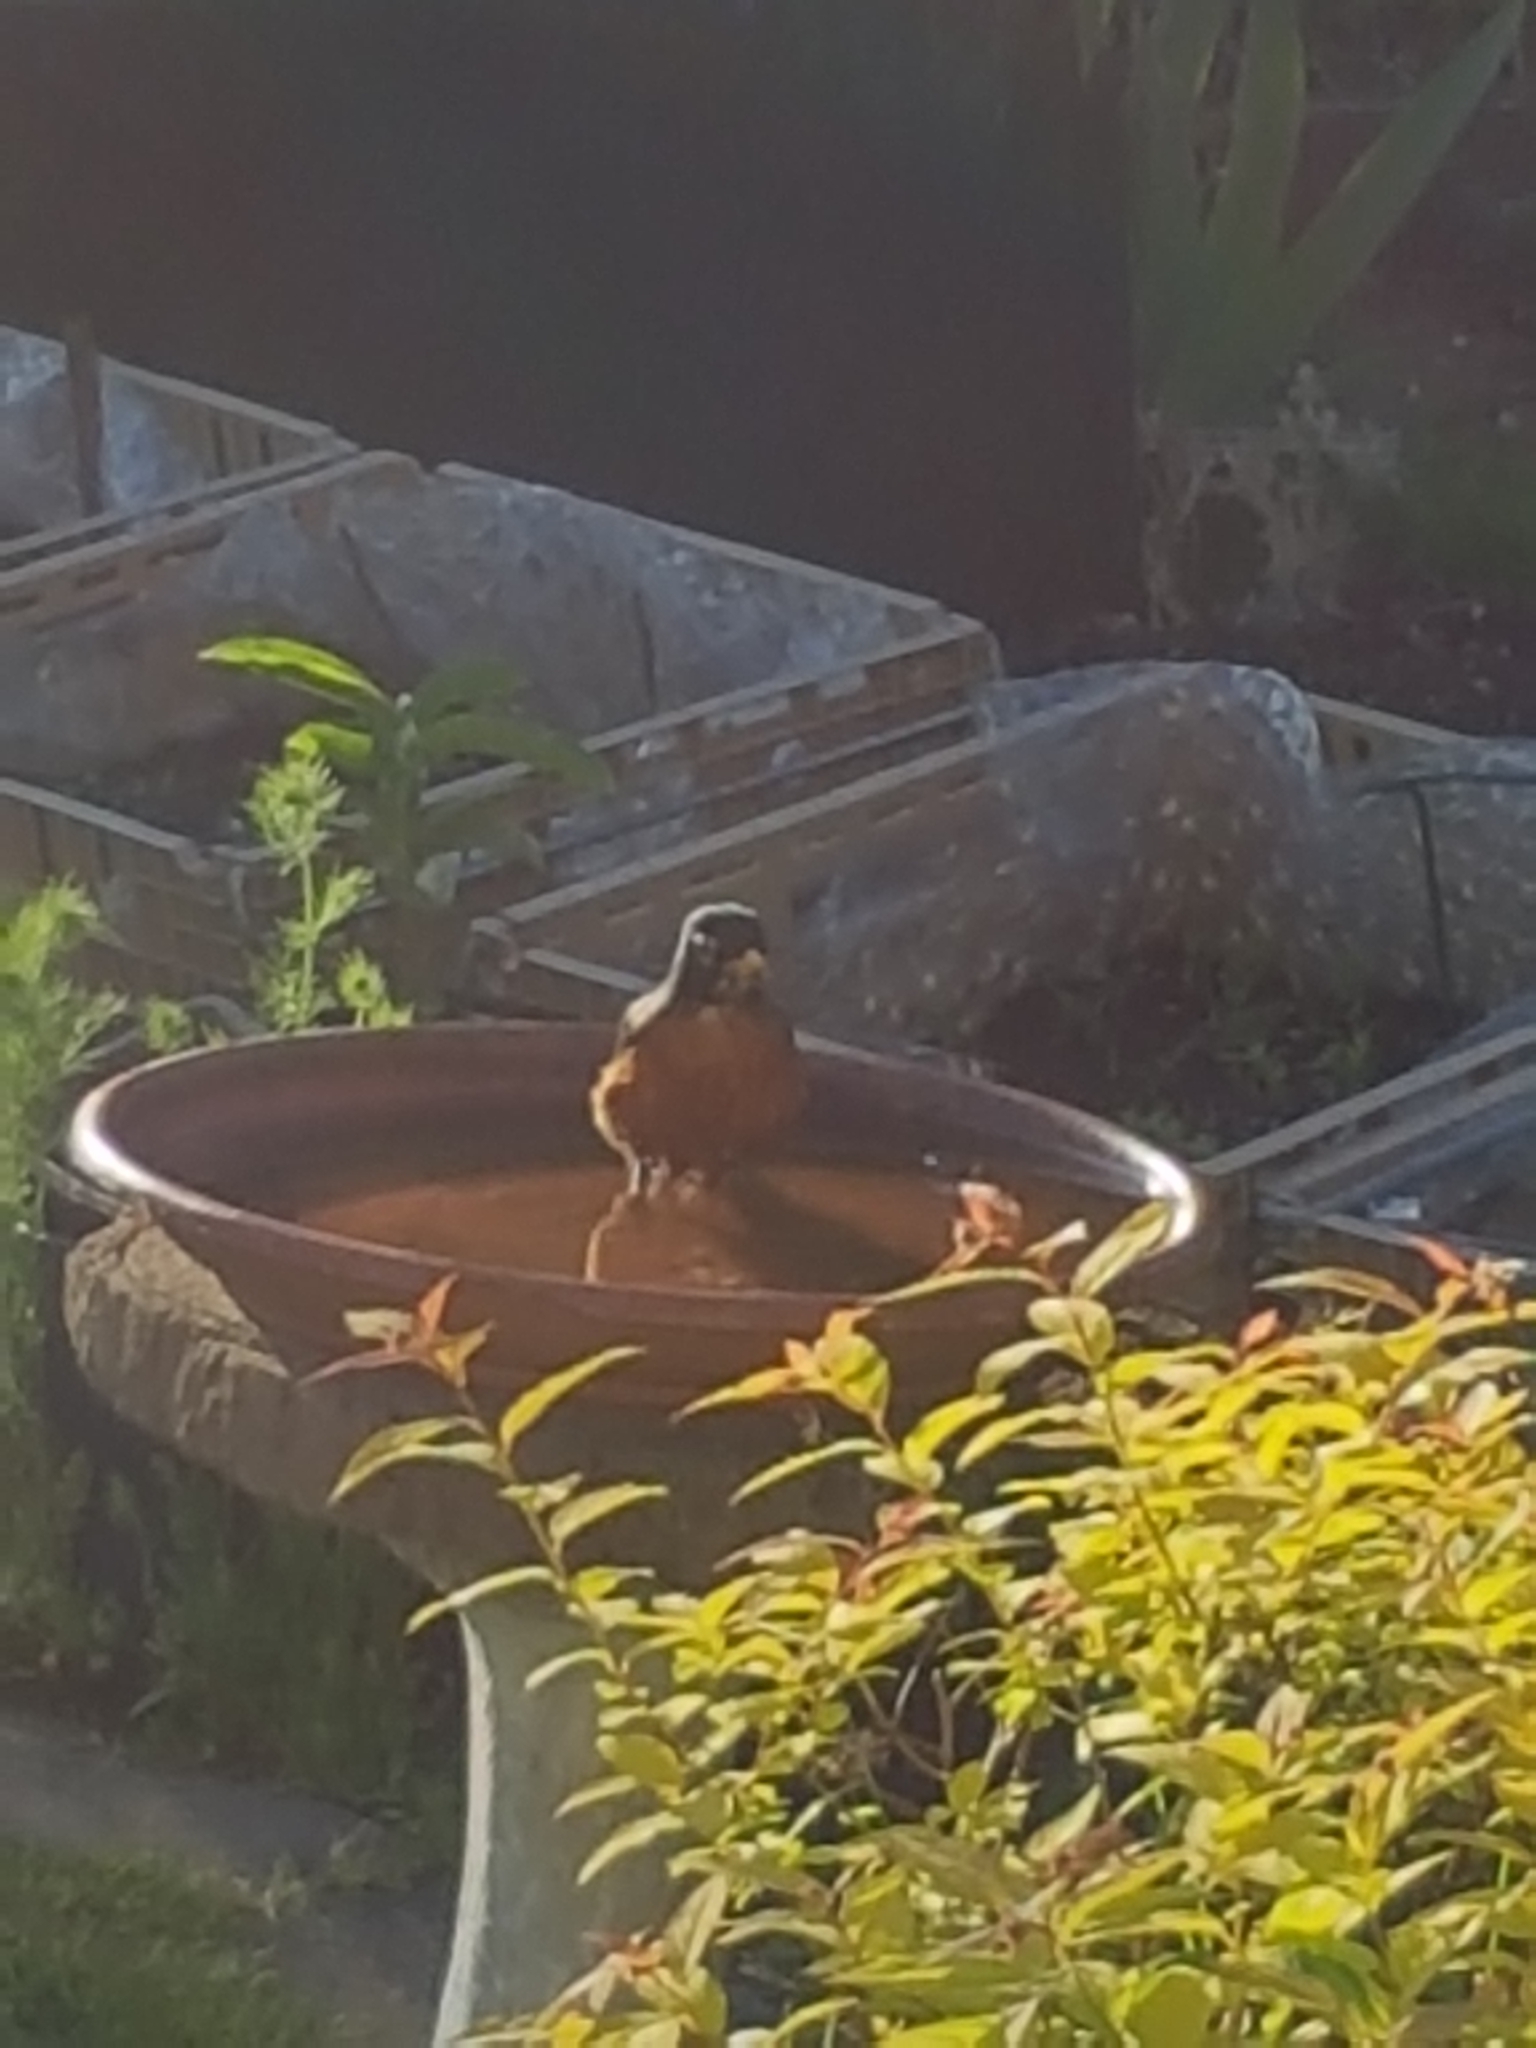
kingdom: Animalia
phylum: Chordata
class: Aves
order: Passeriformes
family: Turdidae
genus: Turdus
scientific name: Turdus migratorius
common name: American robin
